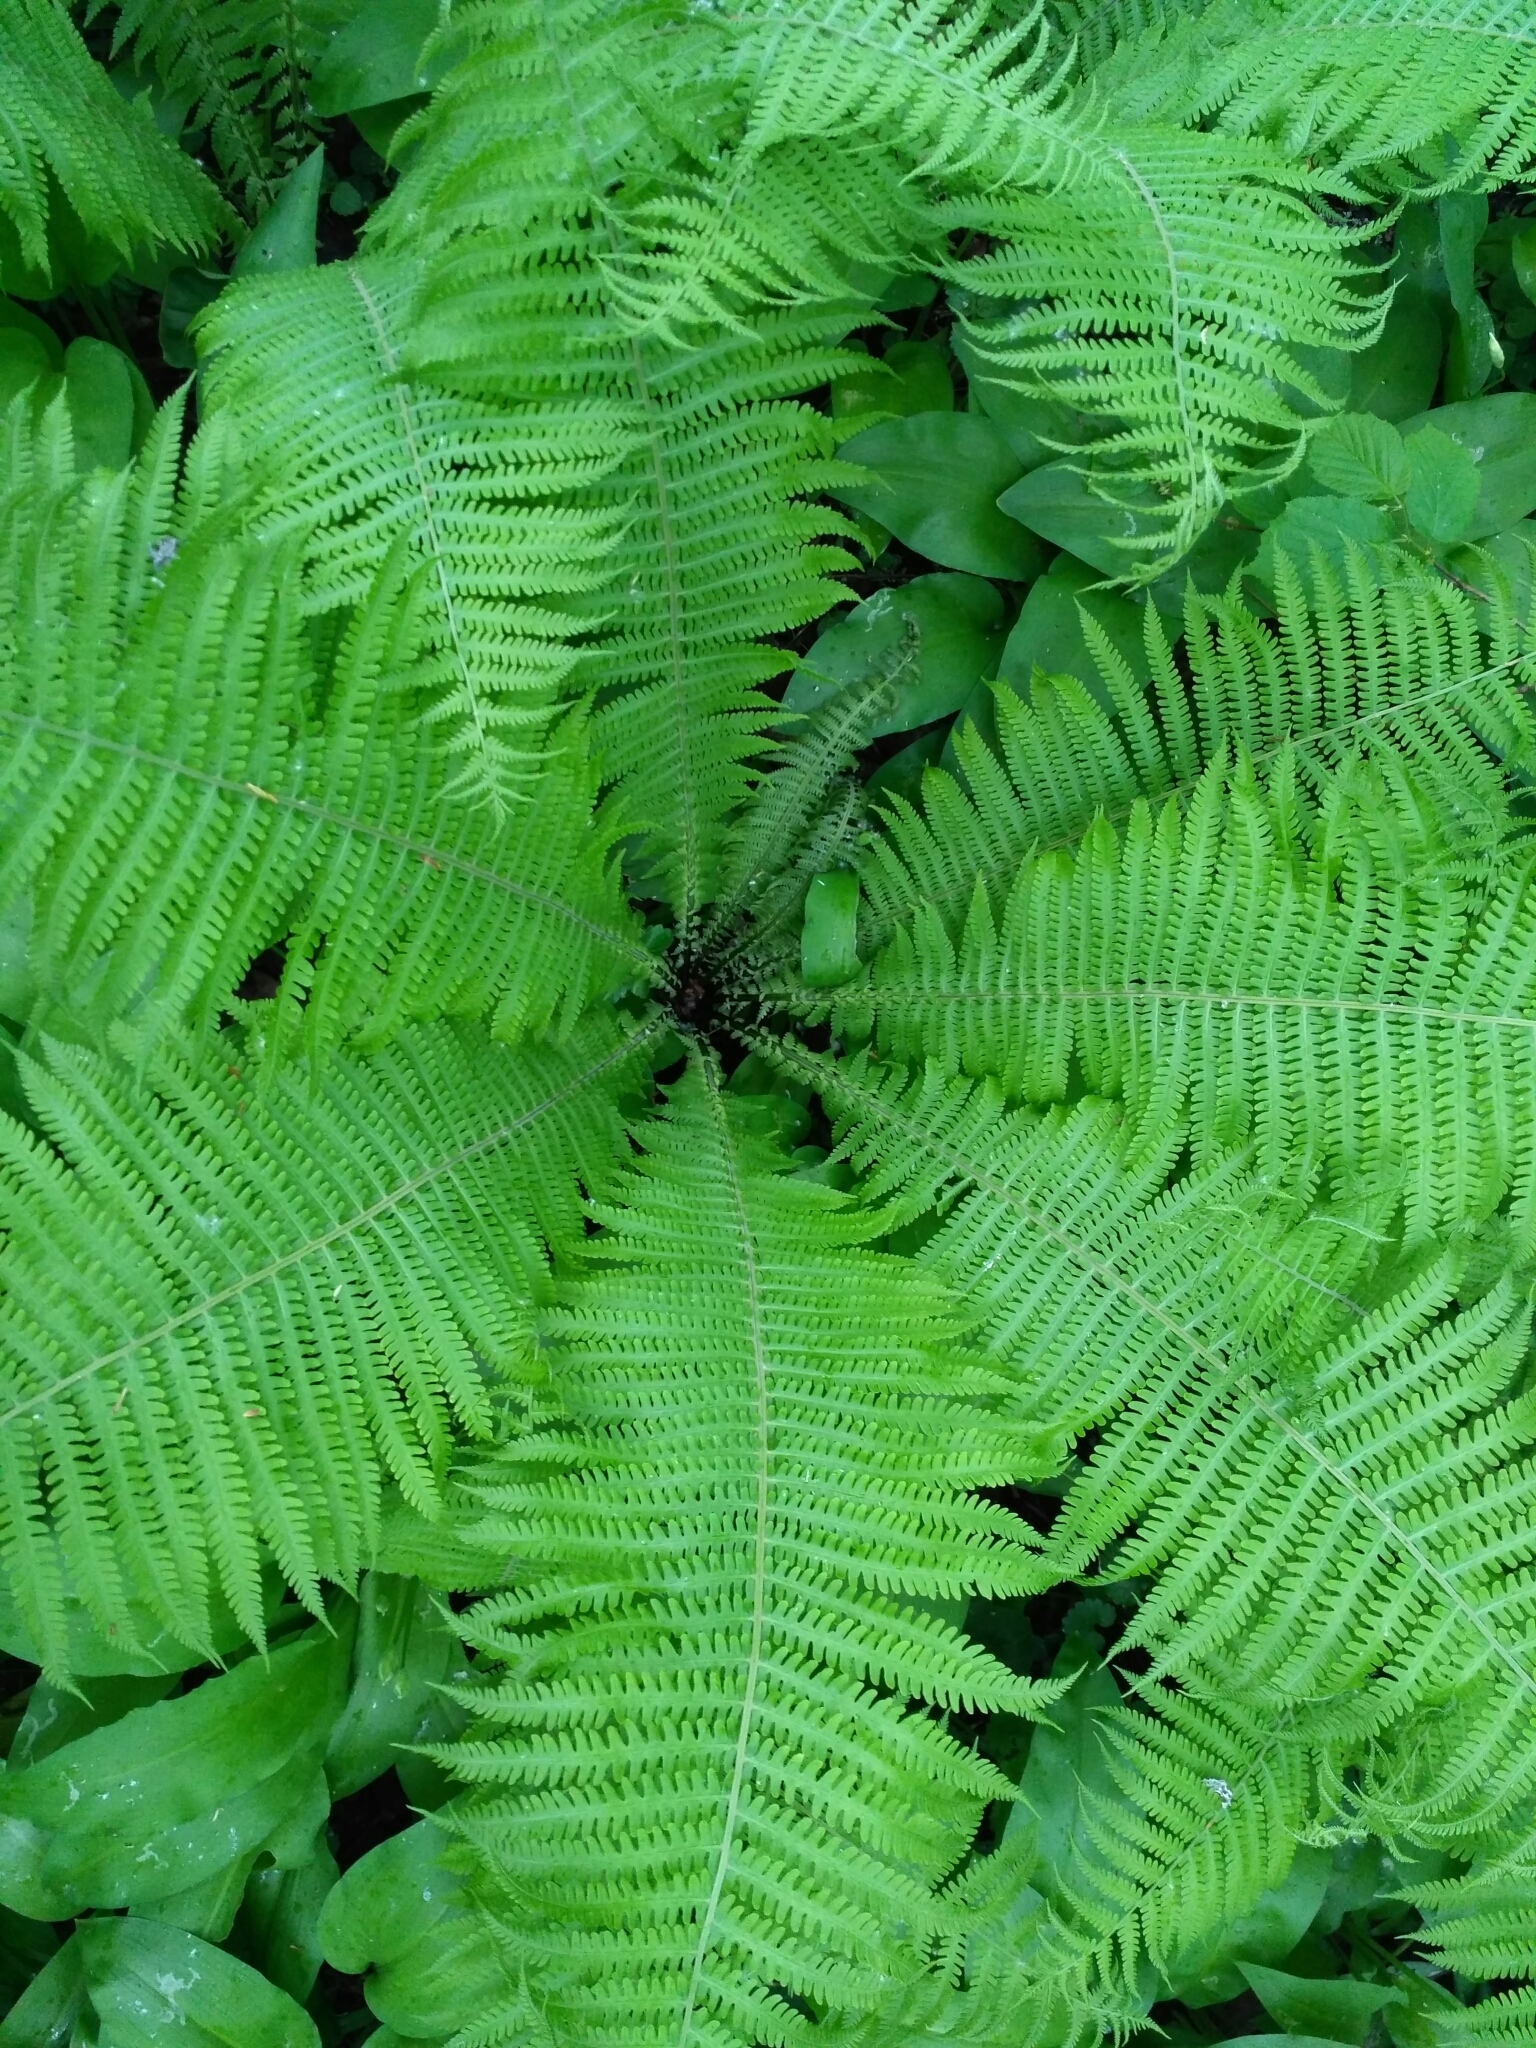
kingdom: Plantae
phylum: Tracheophyta
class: Polypodiopsida
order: Polypodiales
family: Onocleaceae
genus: Matteuccia
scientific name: Matteuccia struthiopteris
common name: Ostrich fern
